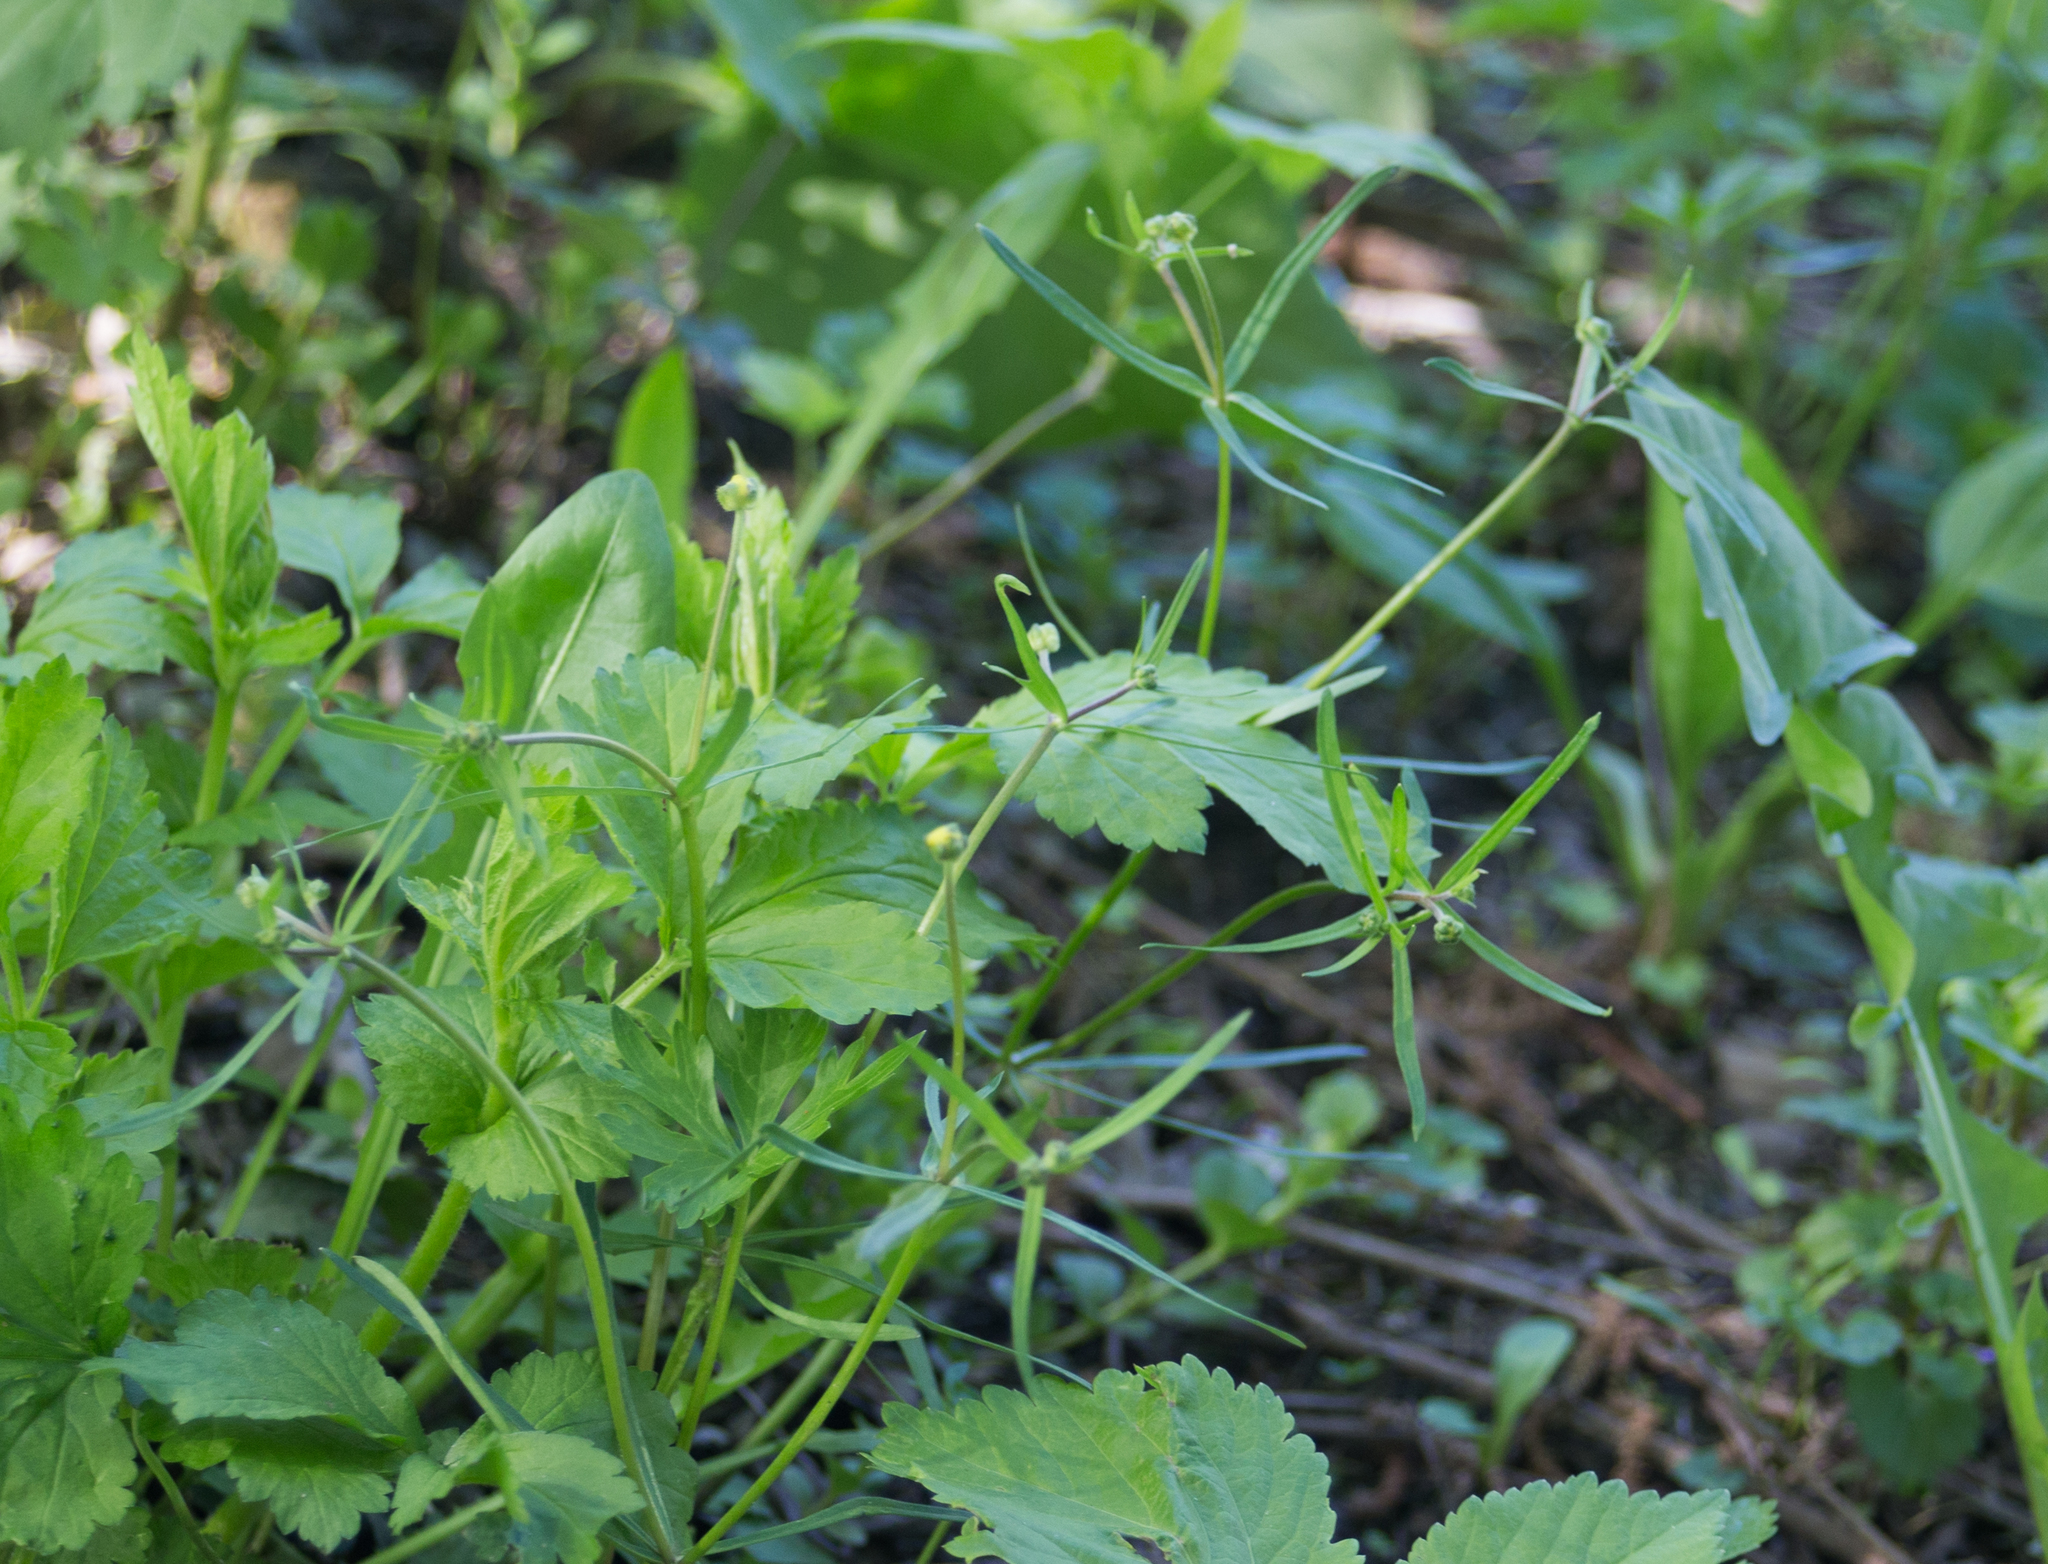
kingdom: Plantae
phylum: Tracheophyta
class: Magnoliopsida
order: Ranunculales
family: Ranunculaceae
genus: Ranunculus
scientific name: Ranunculus auricomus
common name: Goldilocks buttercup
